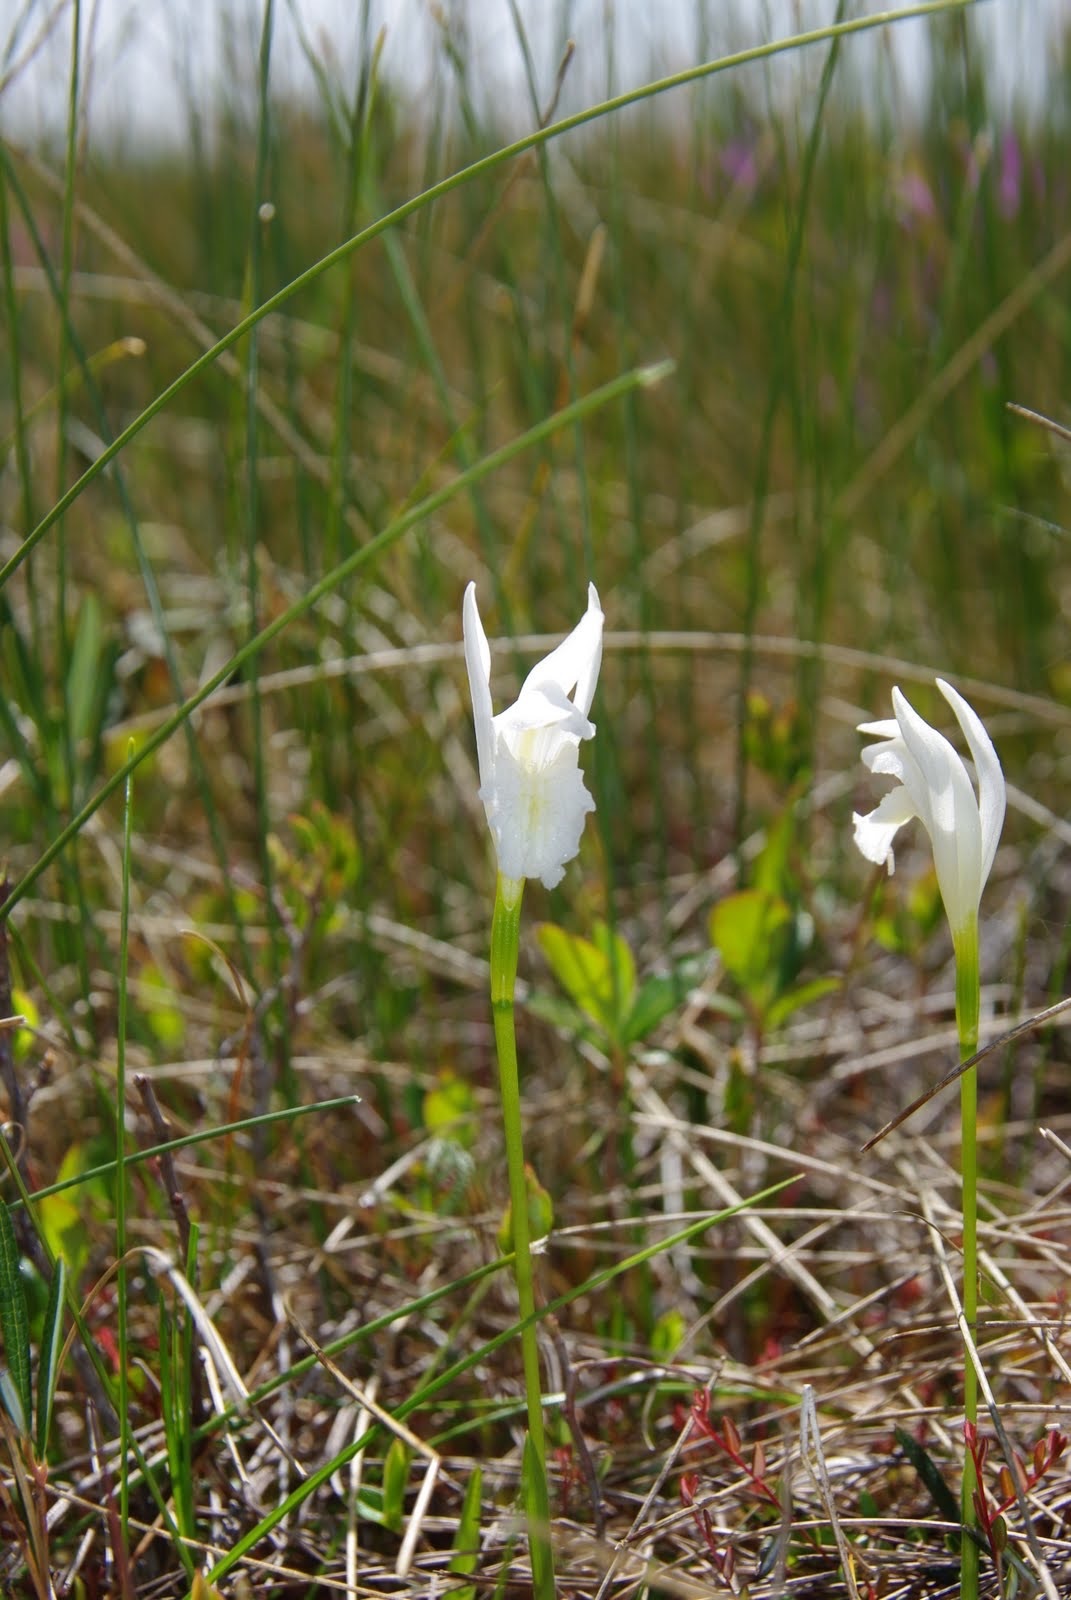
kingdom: Plantae
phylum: Tracheophyta
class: Liliopsida
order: Asparagales
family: Orchidaceae
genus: Arethusa
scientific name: Arethusa bulbosa
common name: Arethusa
